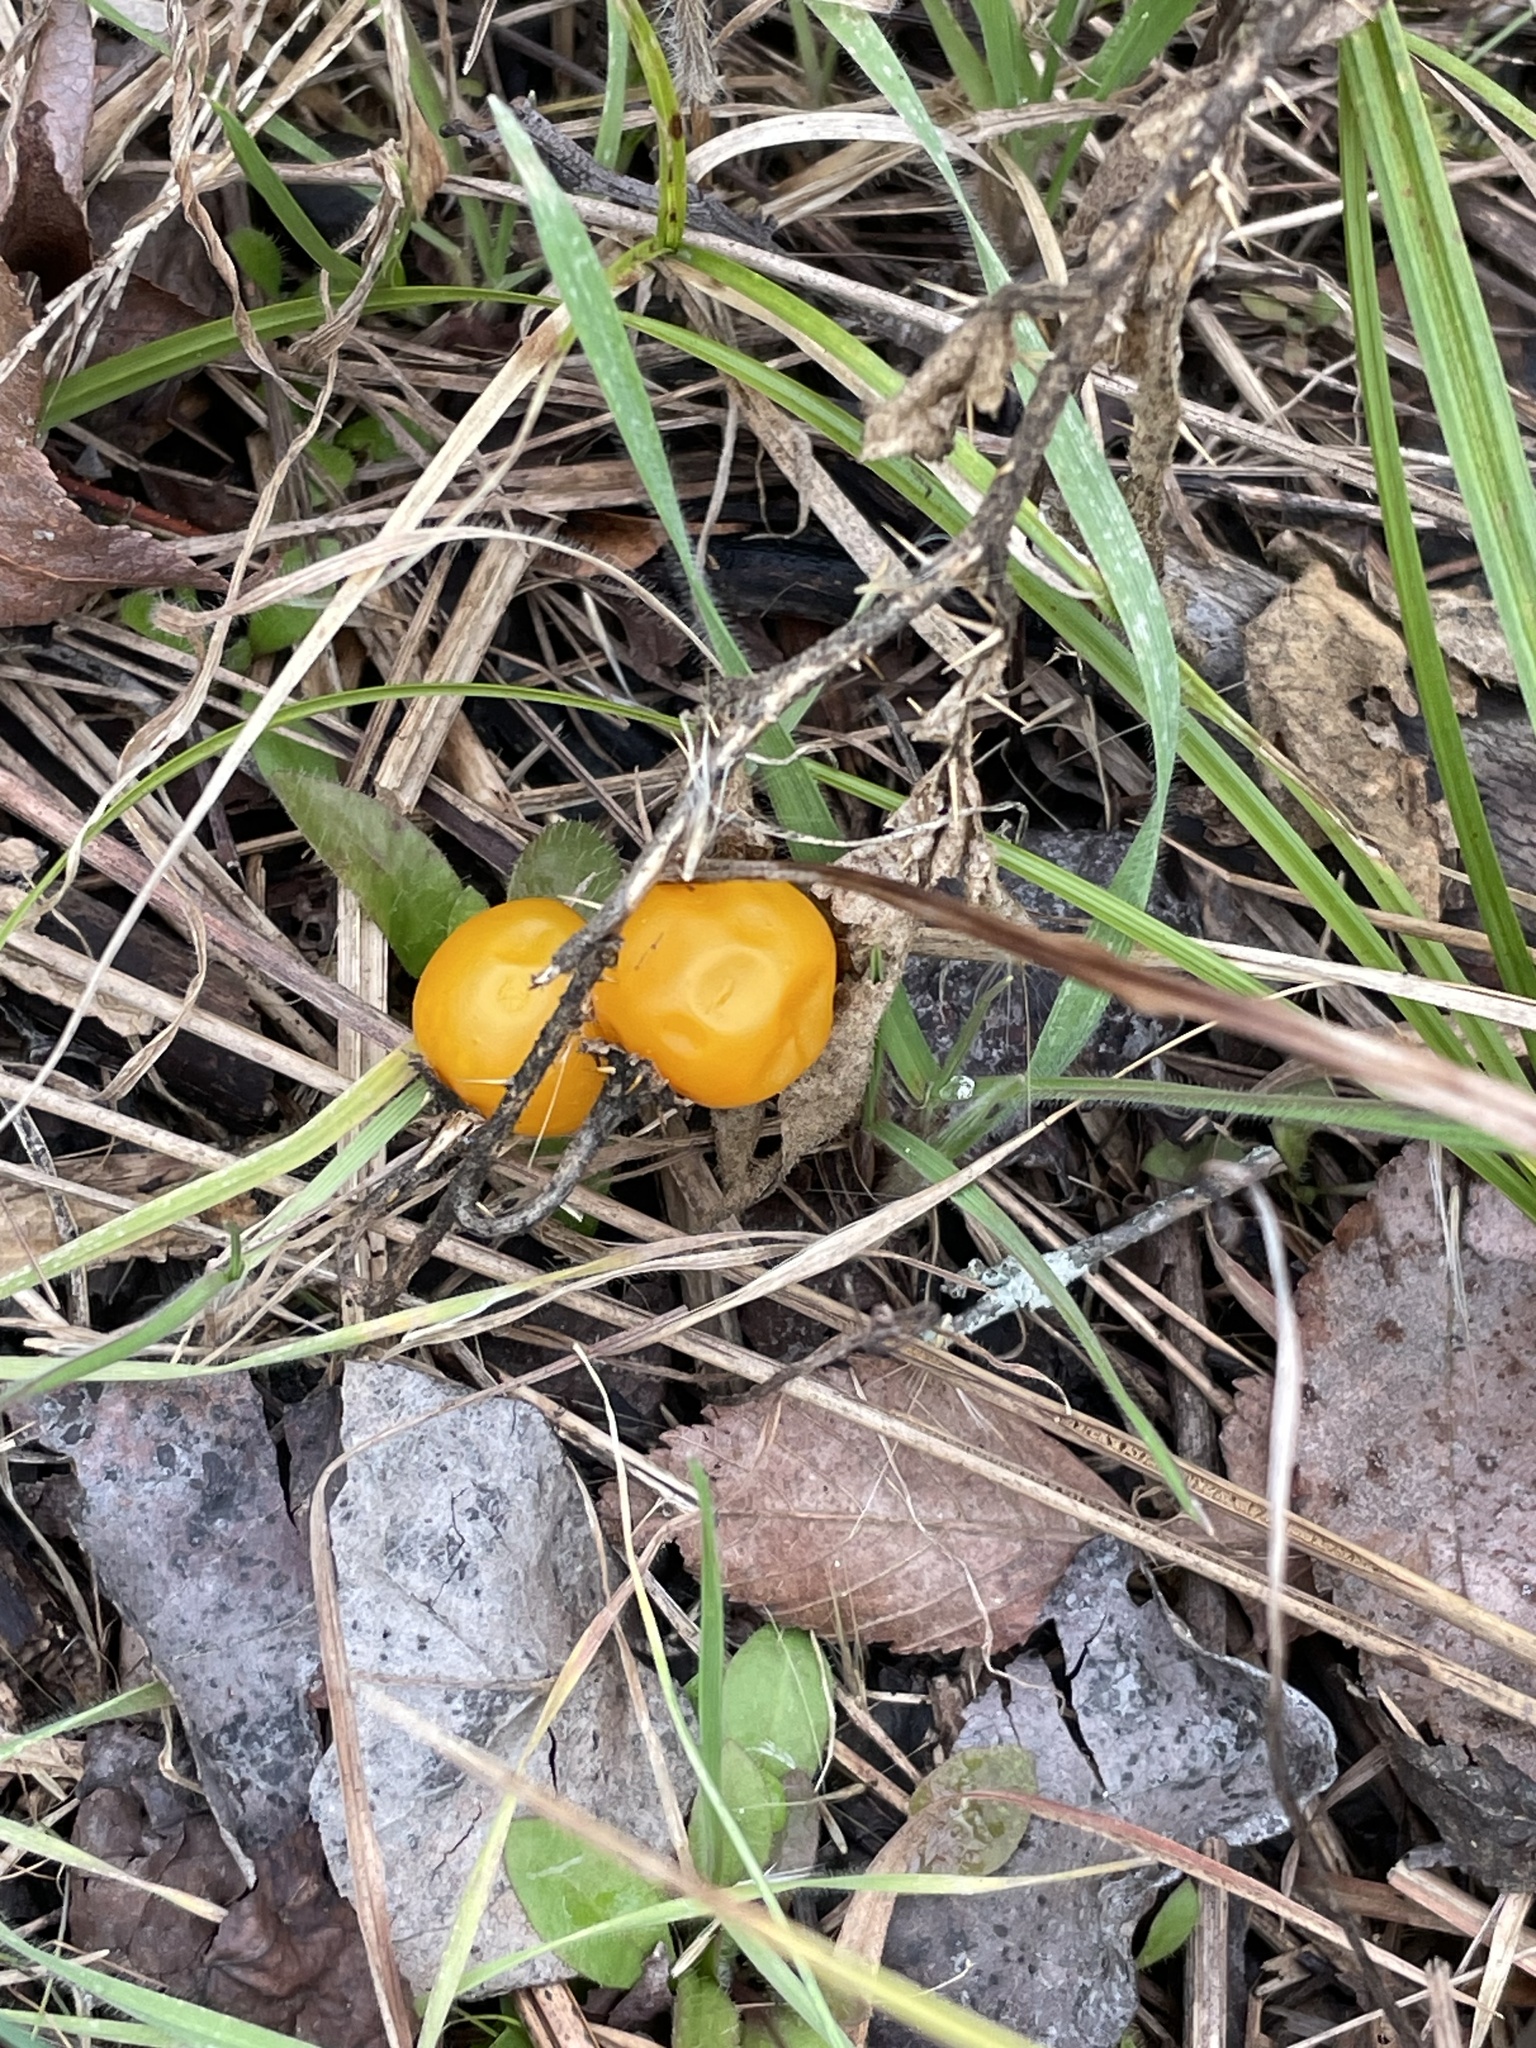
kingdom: Plantae
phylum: Tracheophyta
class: Magnoliopsida
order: Solanales
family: Solanaceae
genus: Solanum
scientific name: Solanum carolinense
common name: Horse-nettle
